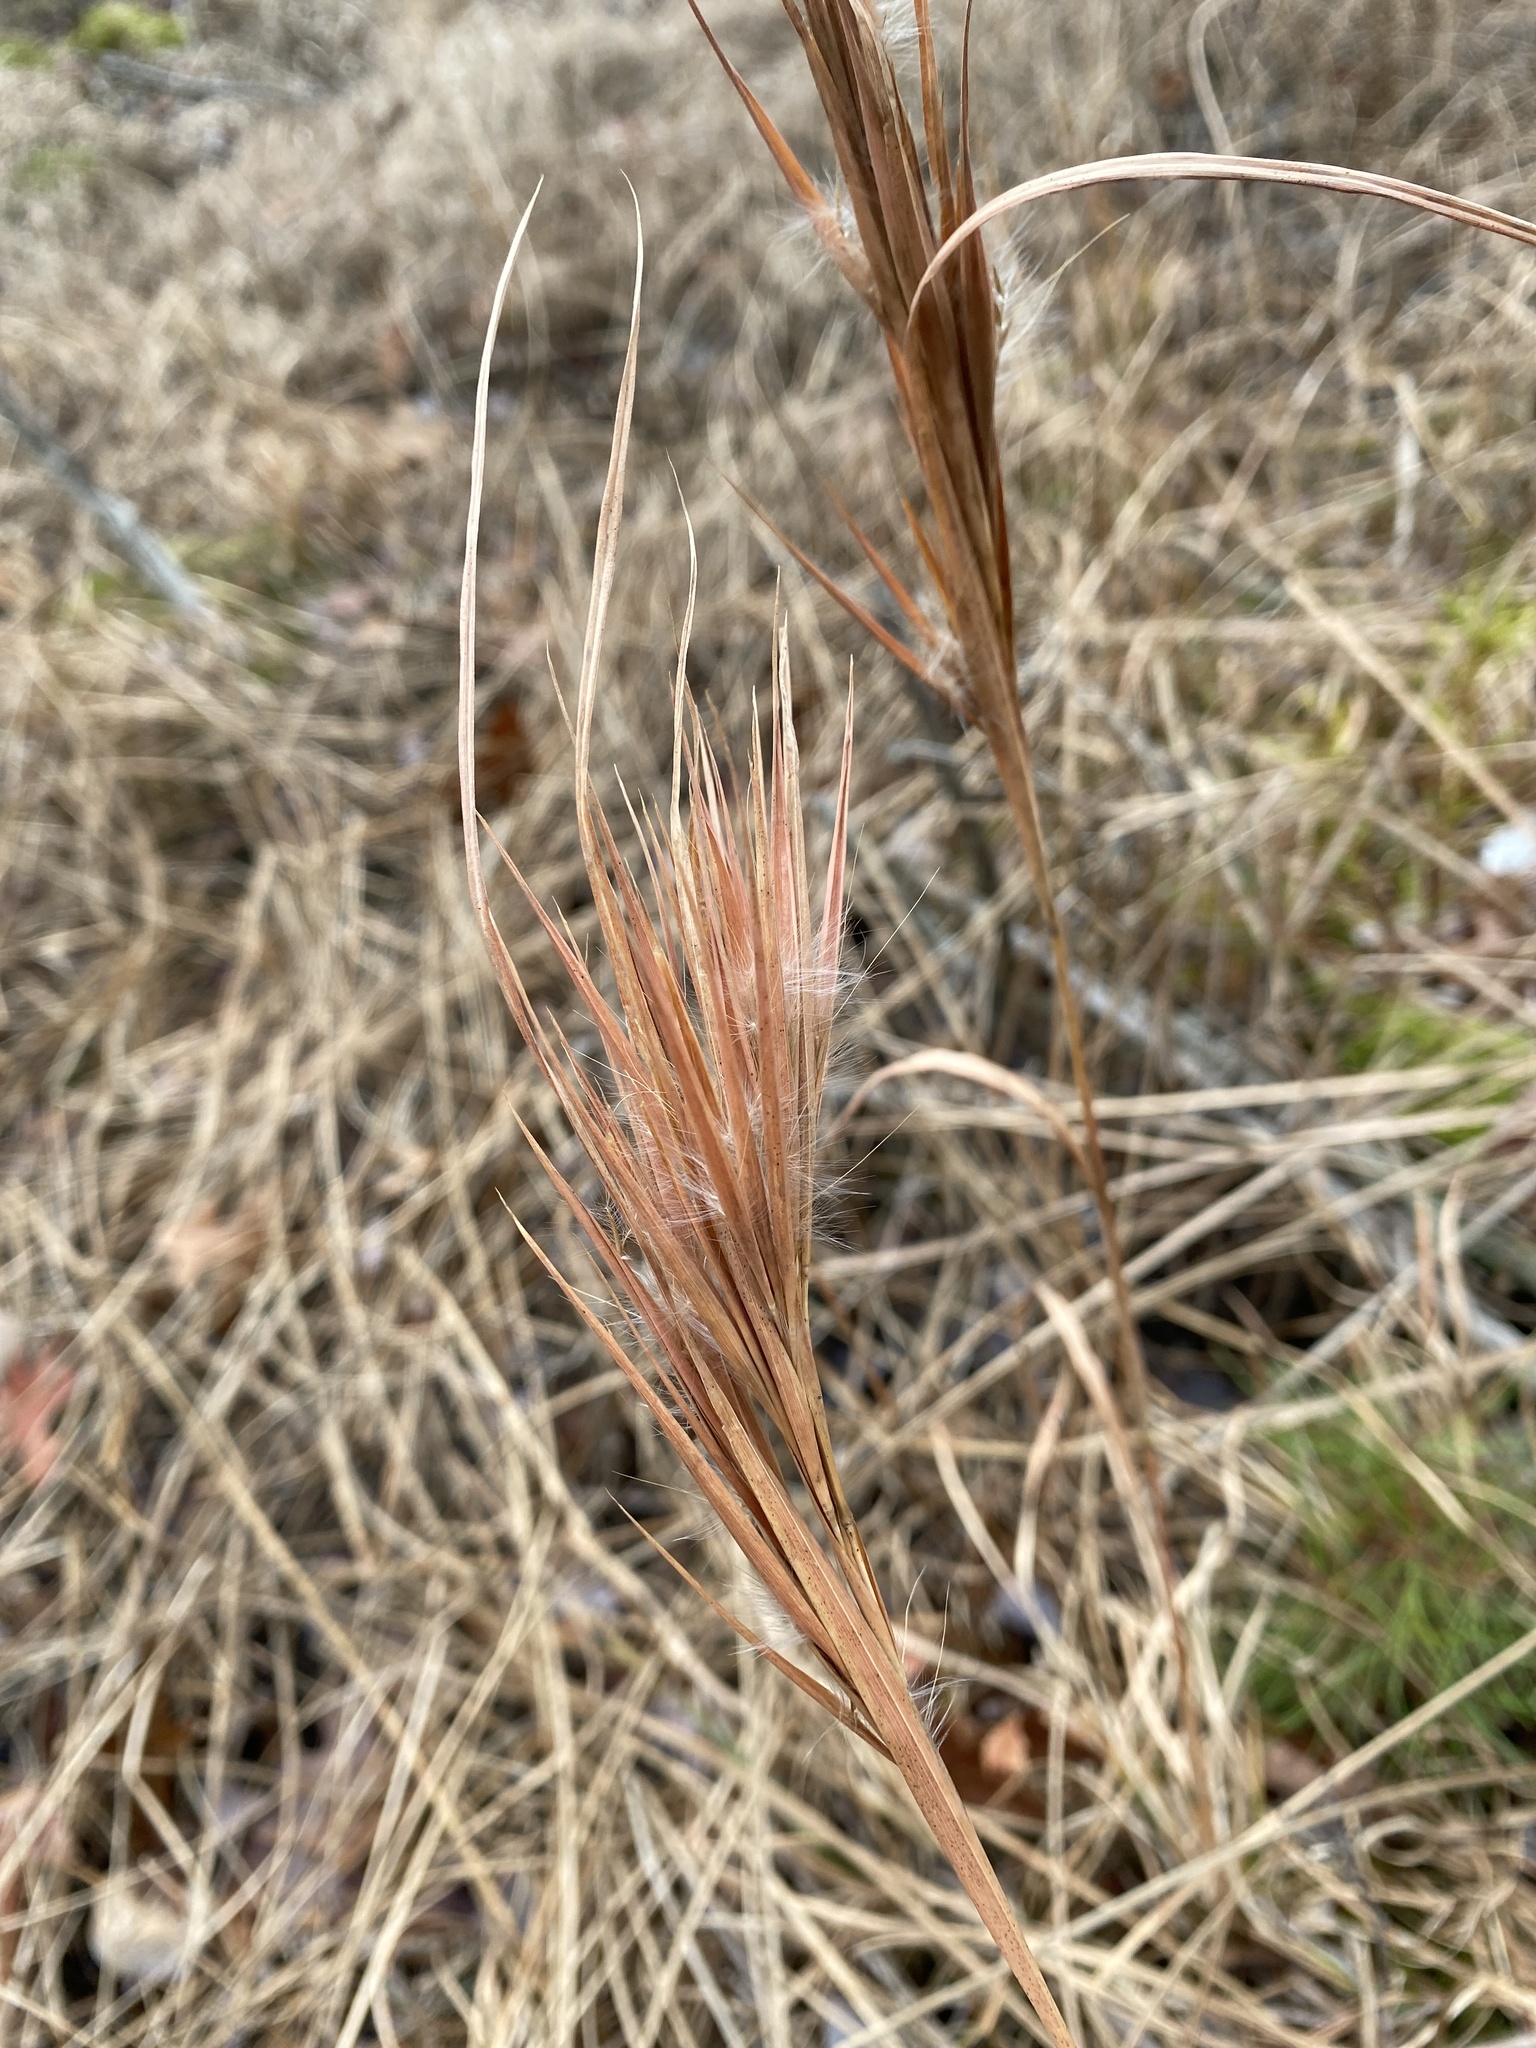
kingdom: Plantae
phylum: Tracheophyta
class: Liliopsida
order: Poales
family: Poaceae
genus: Andropogon
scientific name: Andropogon glomeratus
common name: Bushy beard grass
